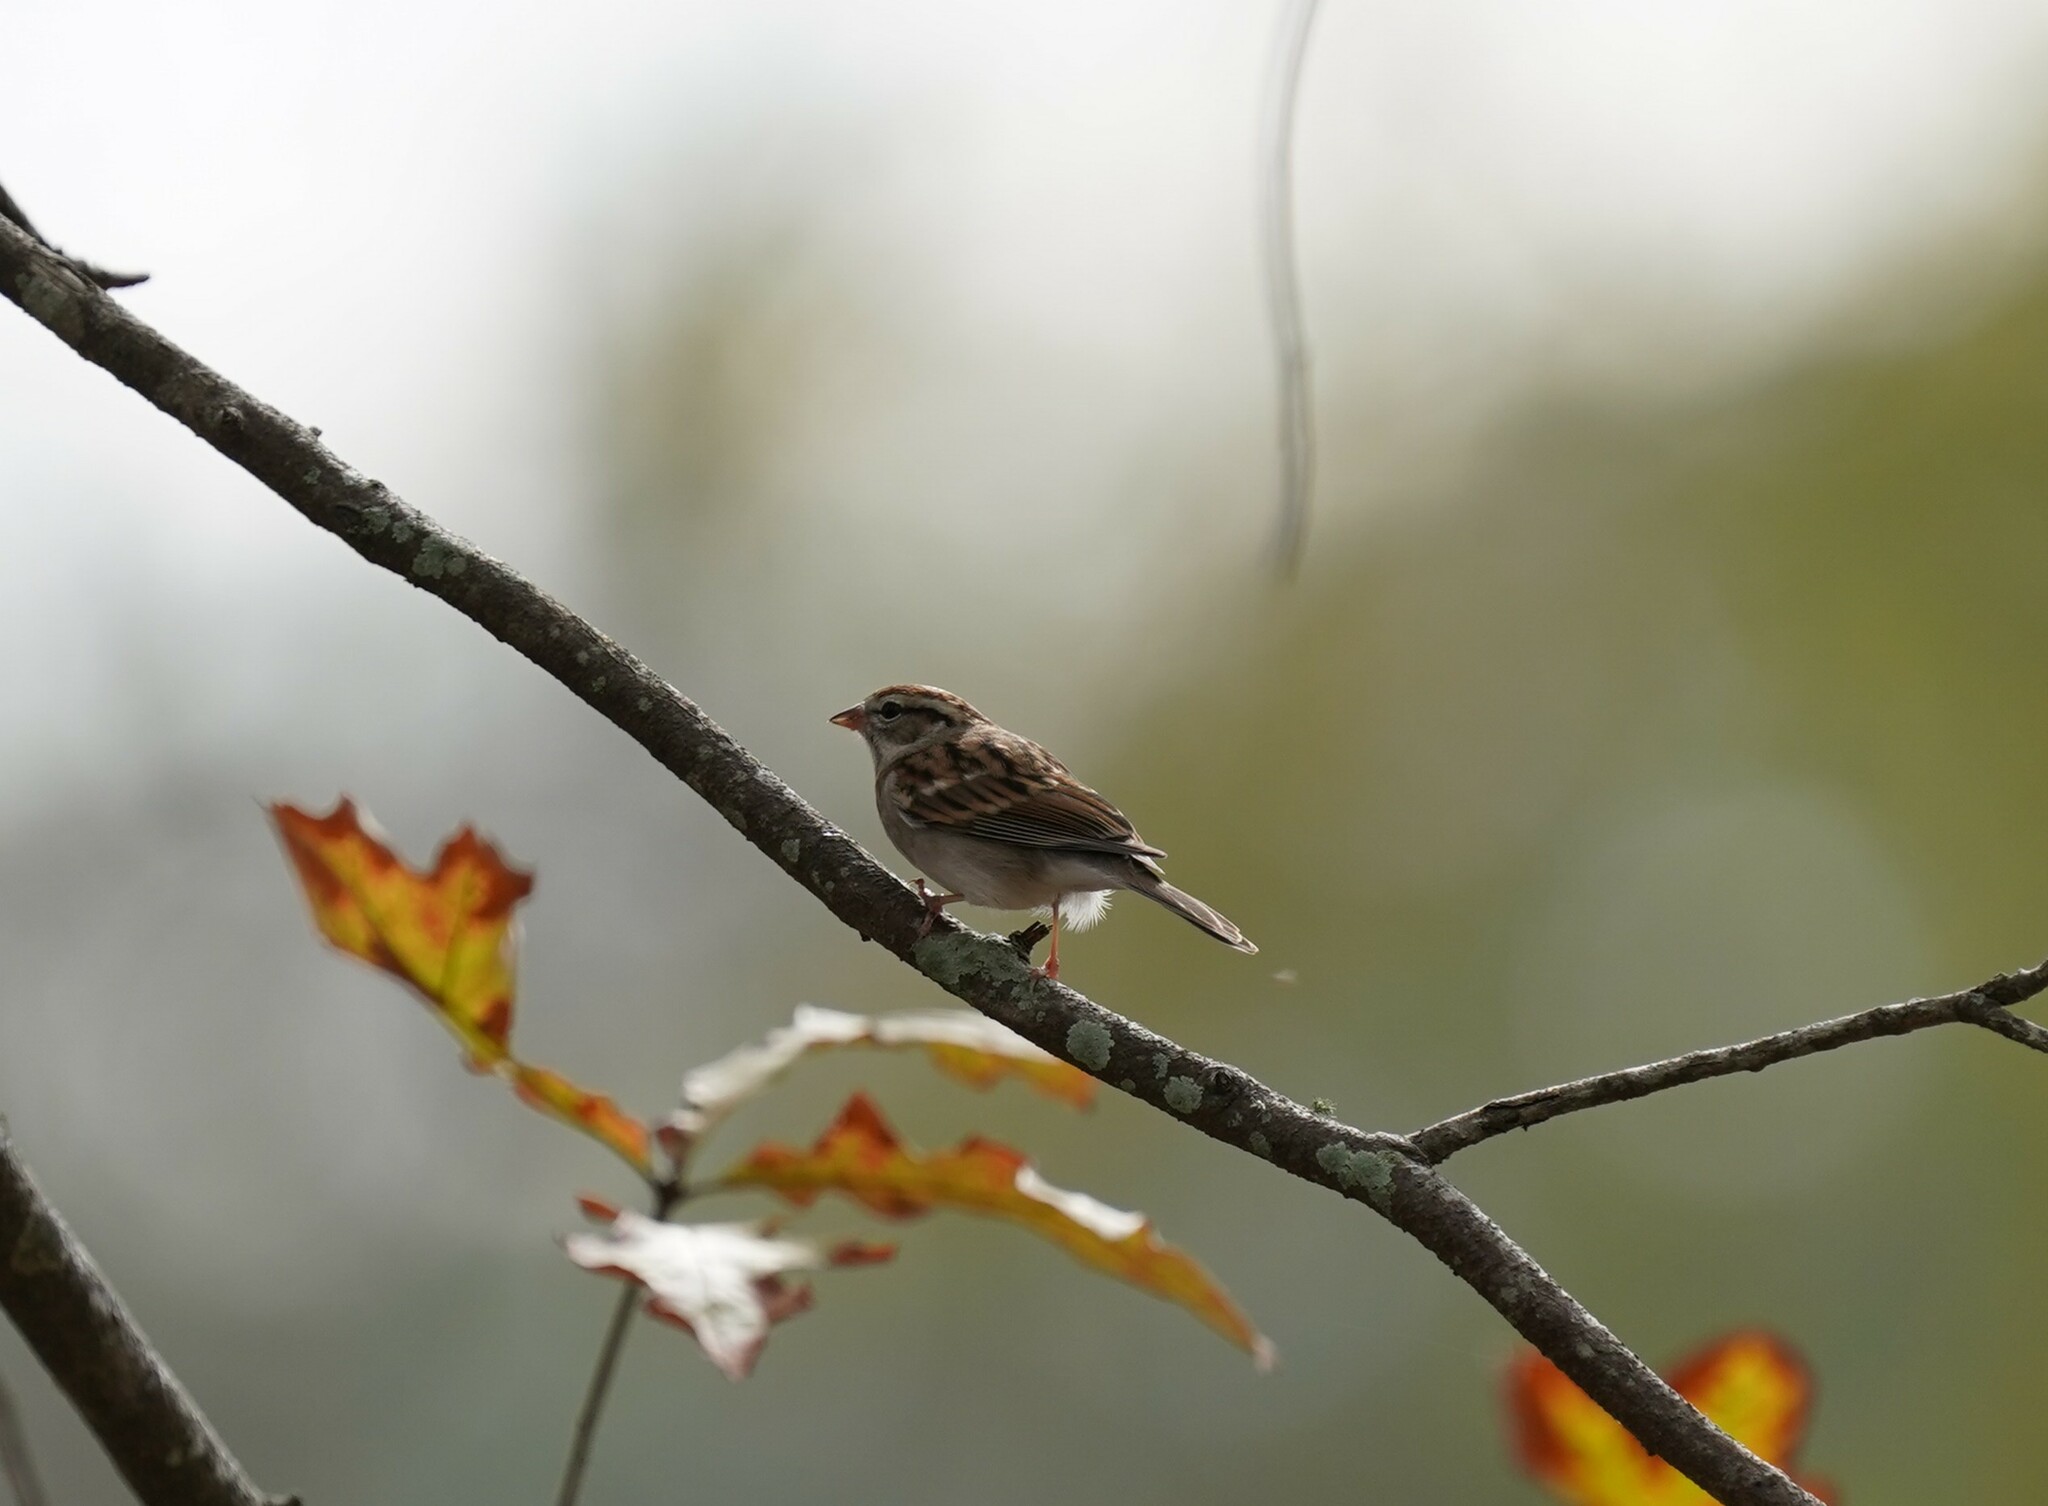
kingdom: Animalia
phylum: Chordata
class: Aves
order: Passeriformes
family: Passerellidae
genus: Spizella
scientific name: Spizella passerina
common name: Chipping sparrow
